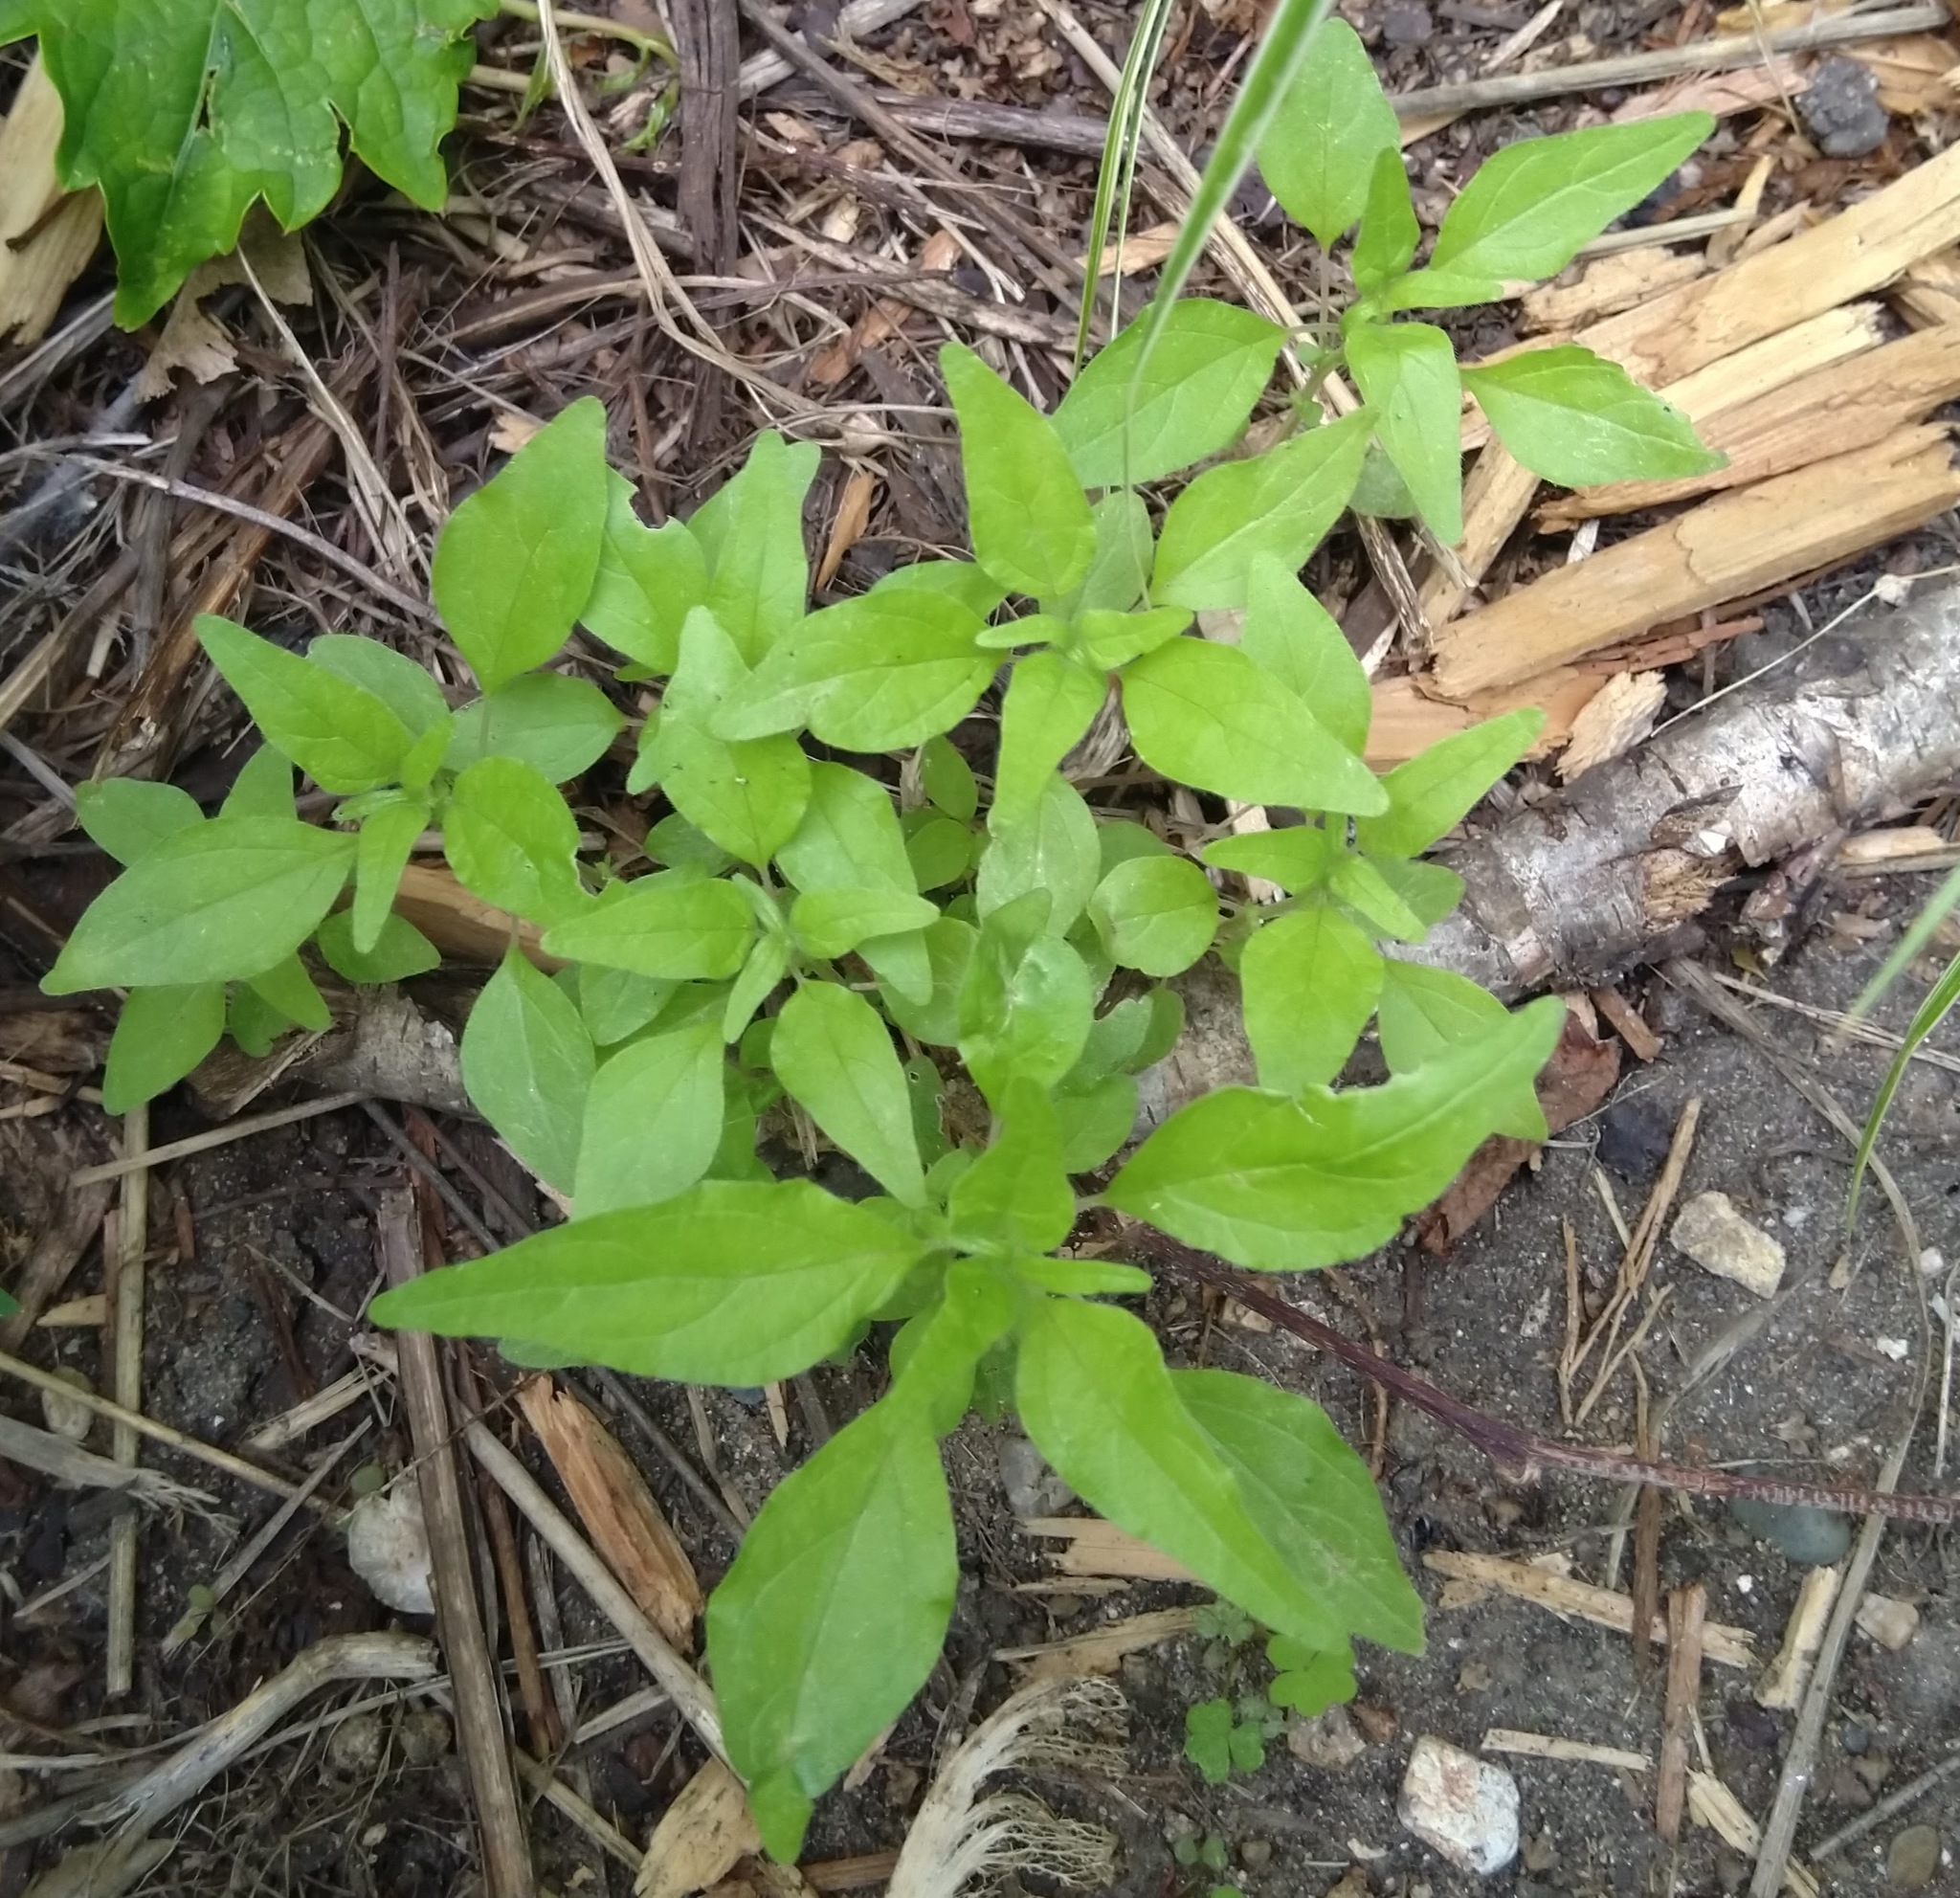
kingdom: Plantae
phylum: Tracheophyta
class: Magnoliopsida
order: Rosales
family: Urticaceae
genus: Parietaria
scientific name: Parietaria pensylvanica
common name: Pennsylvania pellitory
